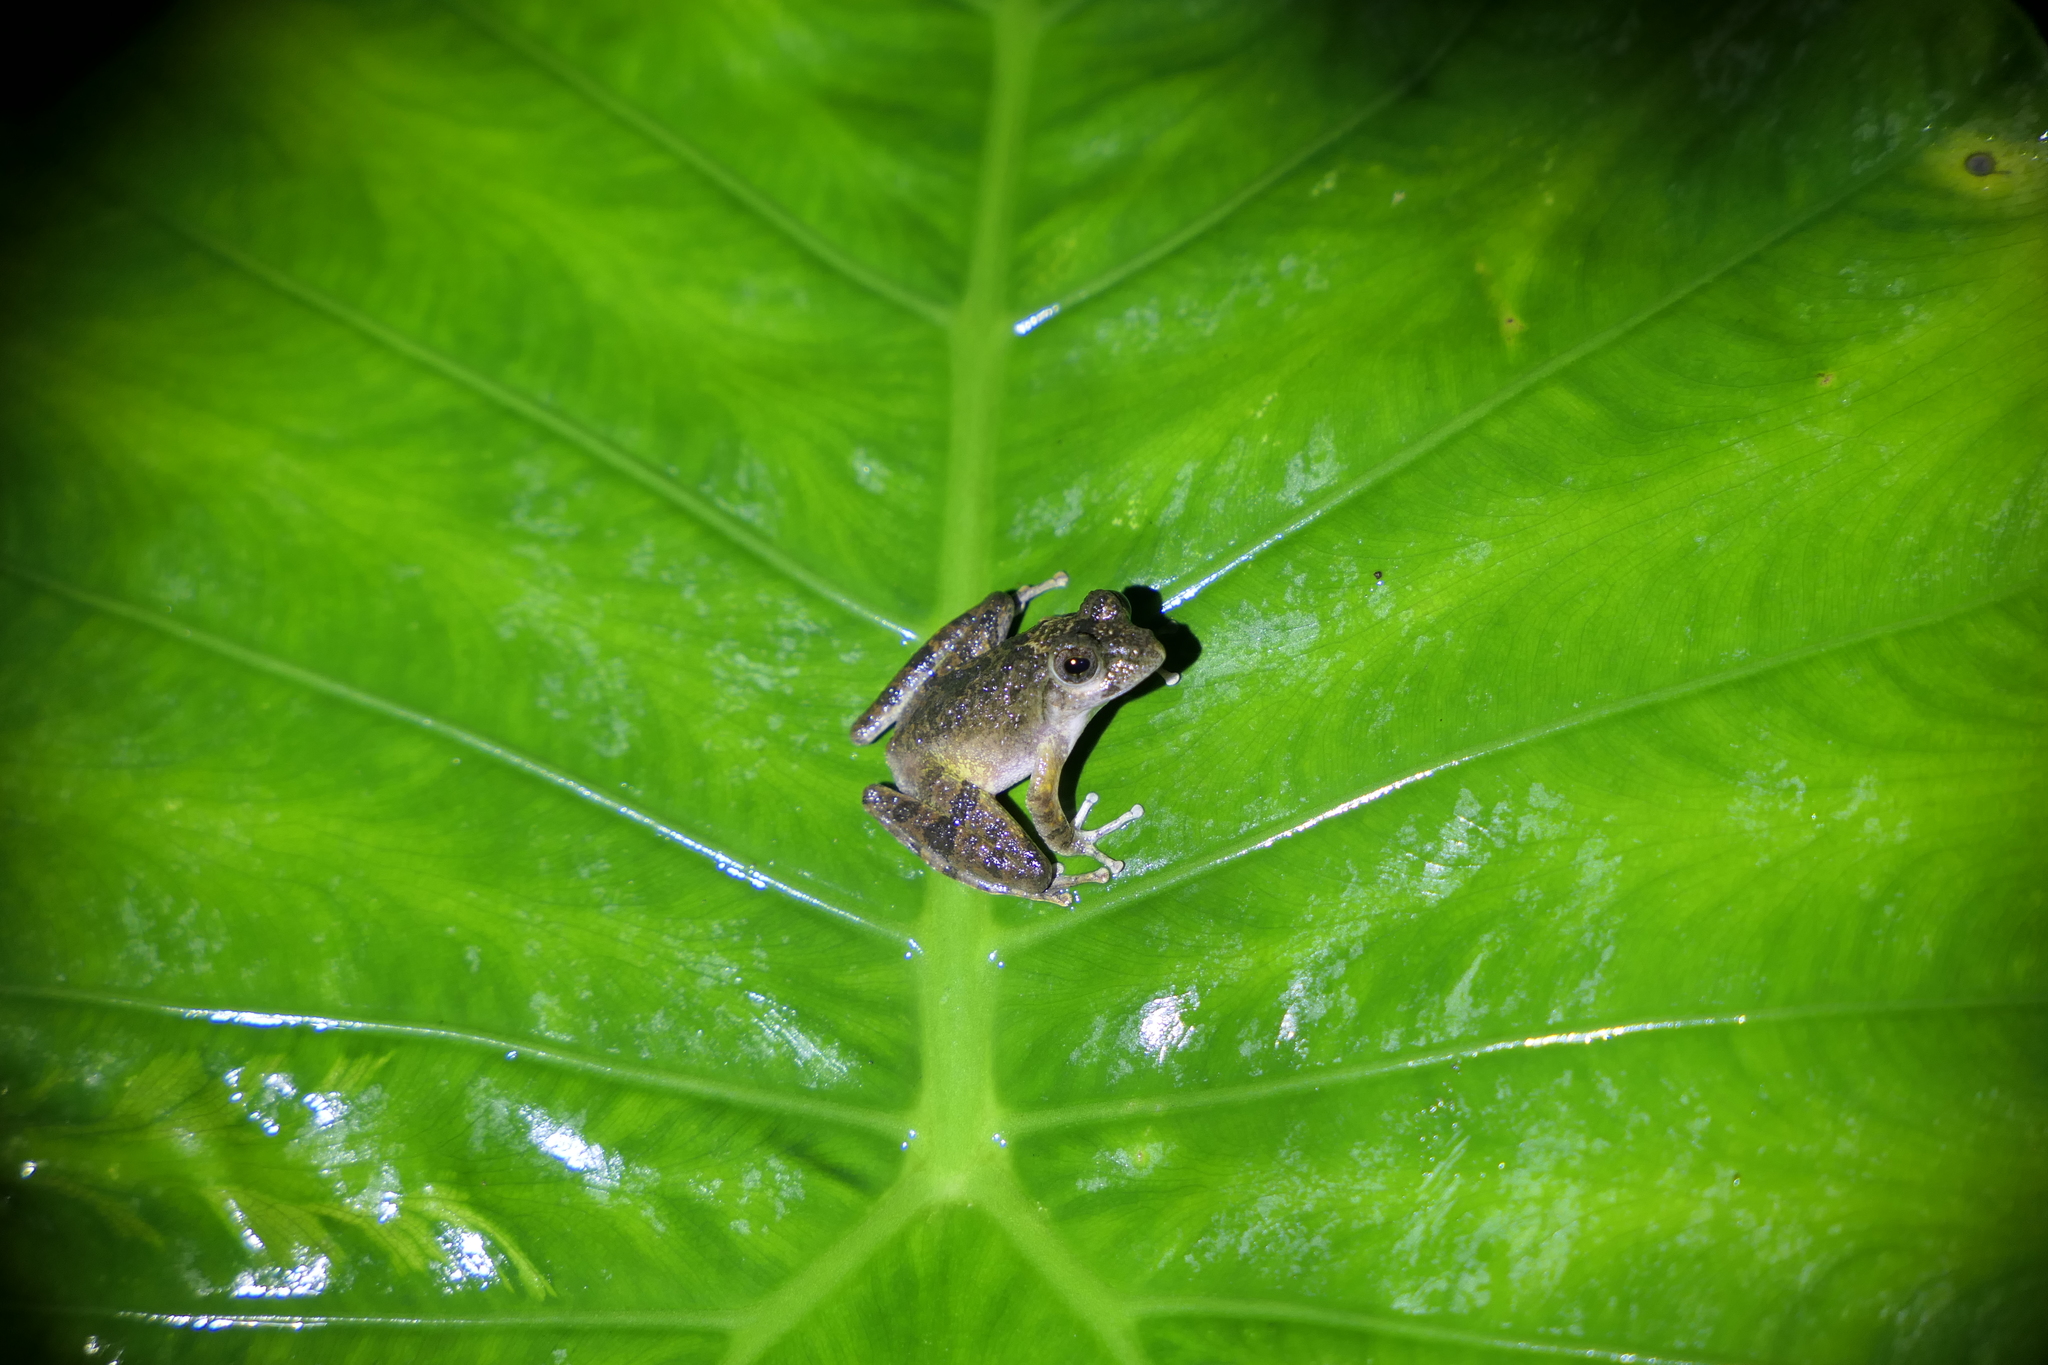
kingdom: Animalia
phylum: Chordata
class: Amphibia
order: Anura
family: Rhacophoridae
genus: Buergeria
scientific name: Buergeria choui
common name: Yaeyama kajika frog
